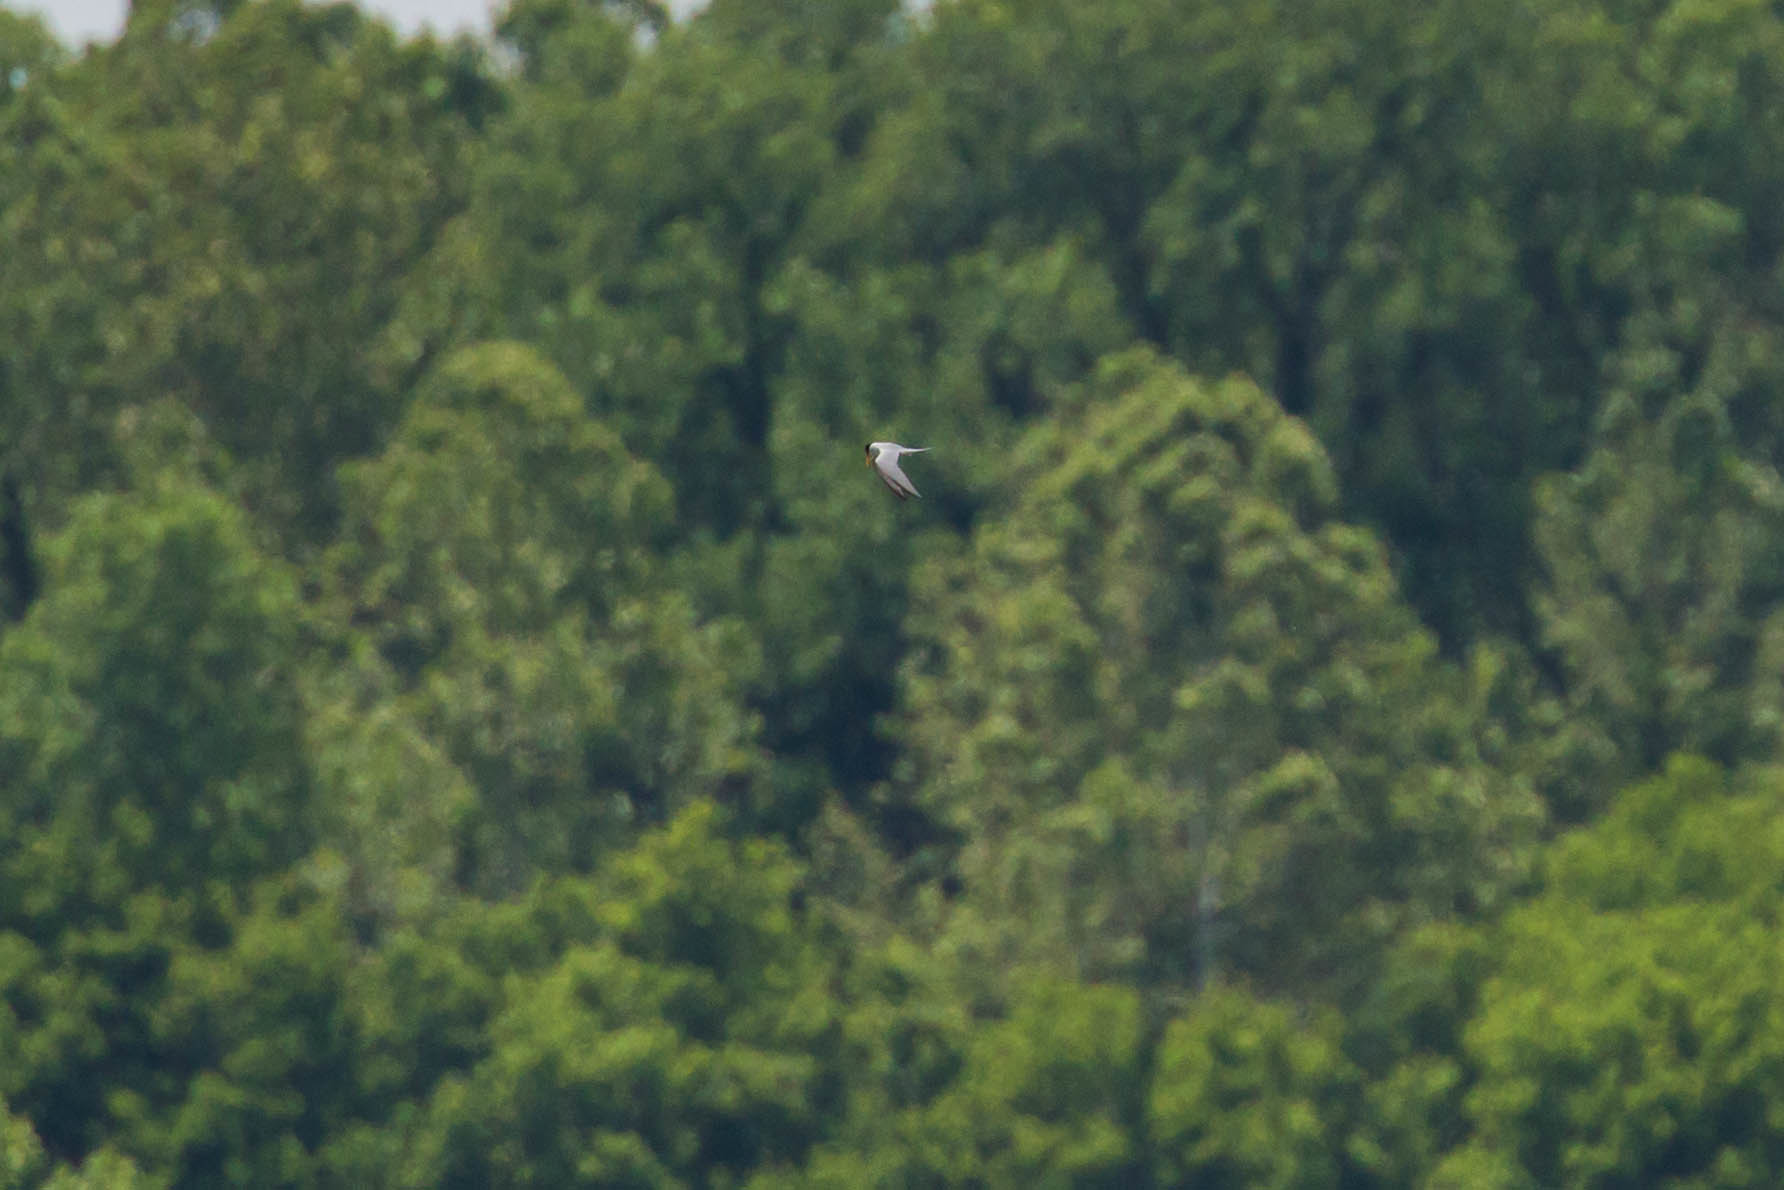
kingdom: Animalia
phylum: Chordata
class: Aves
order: Charadriiformes
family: Laridae
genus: Sternula
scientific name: Sternula antillarum
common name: Least tern
